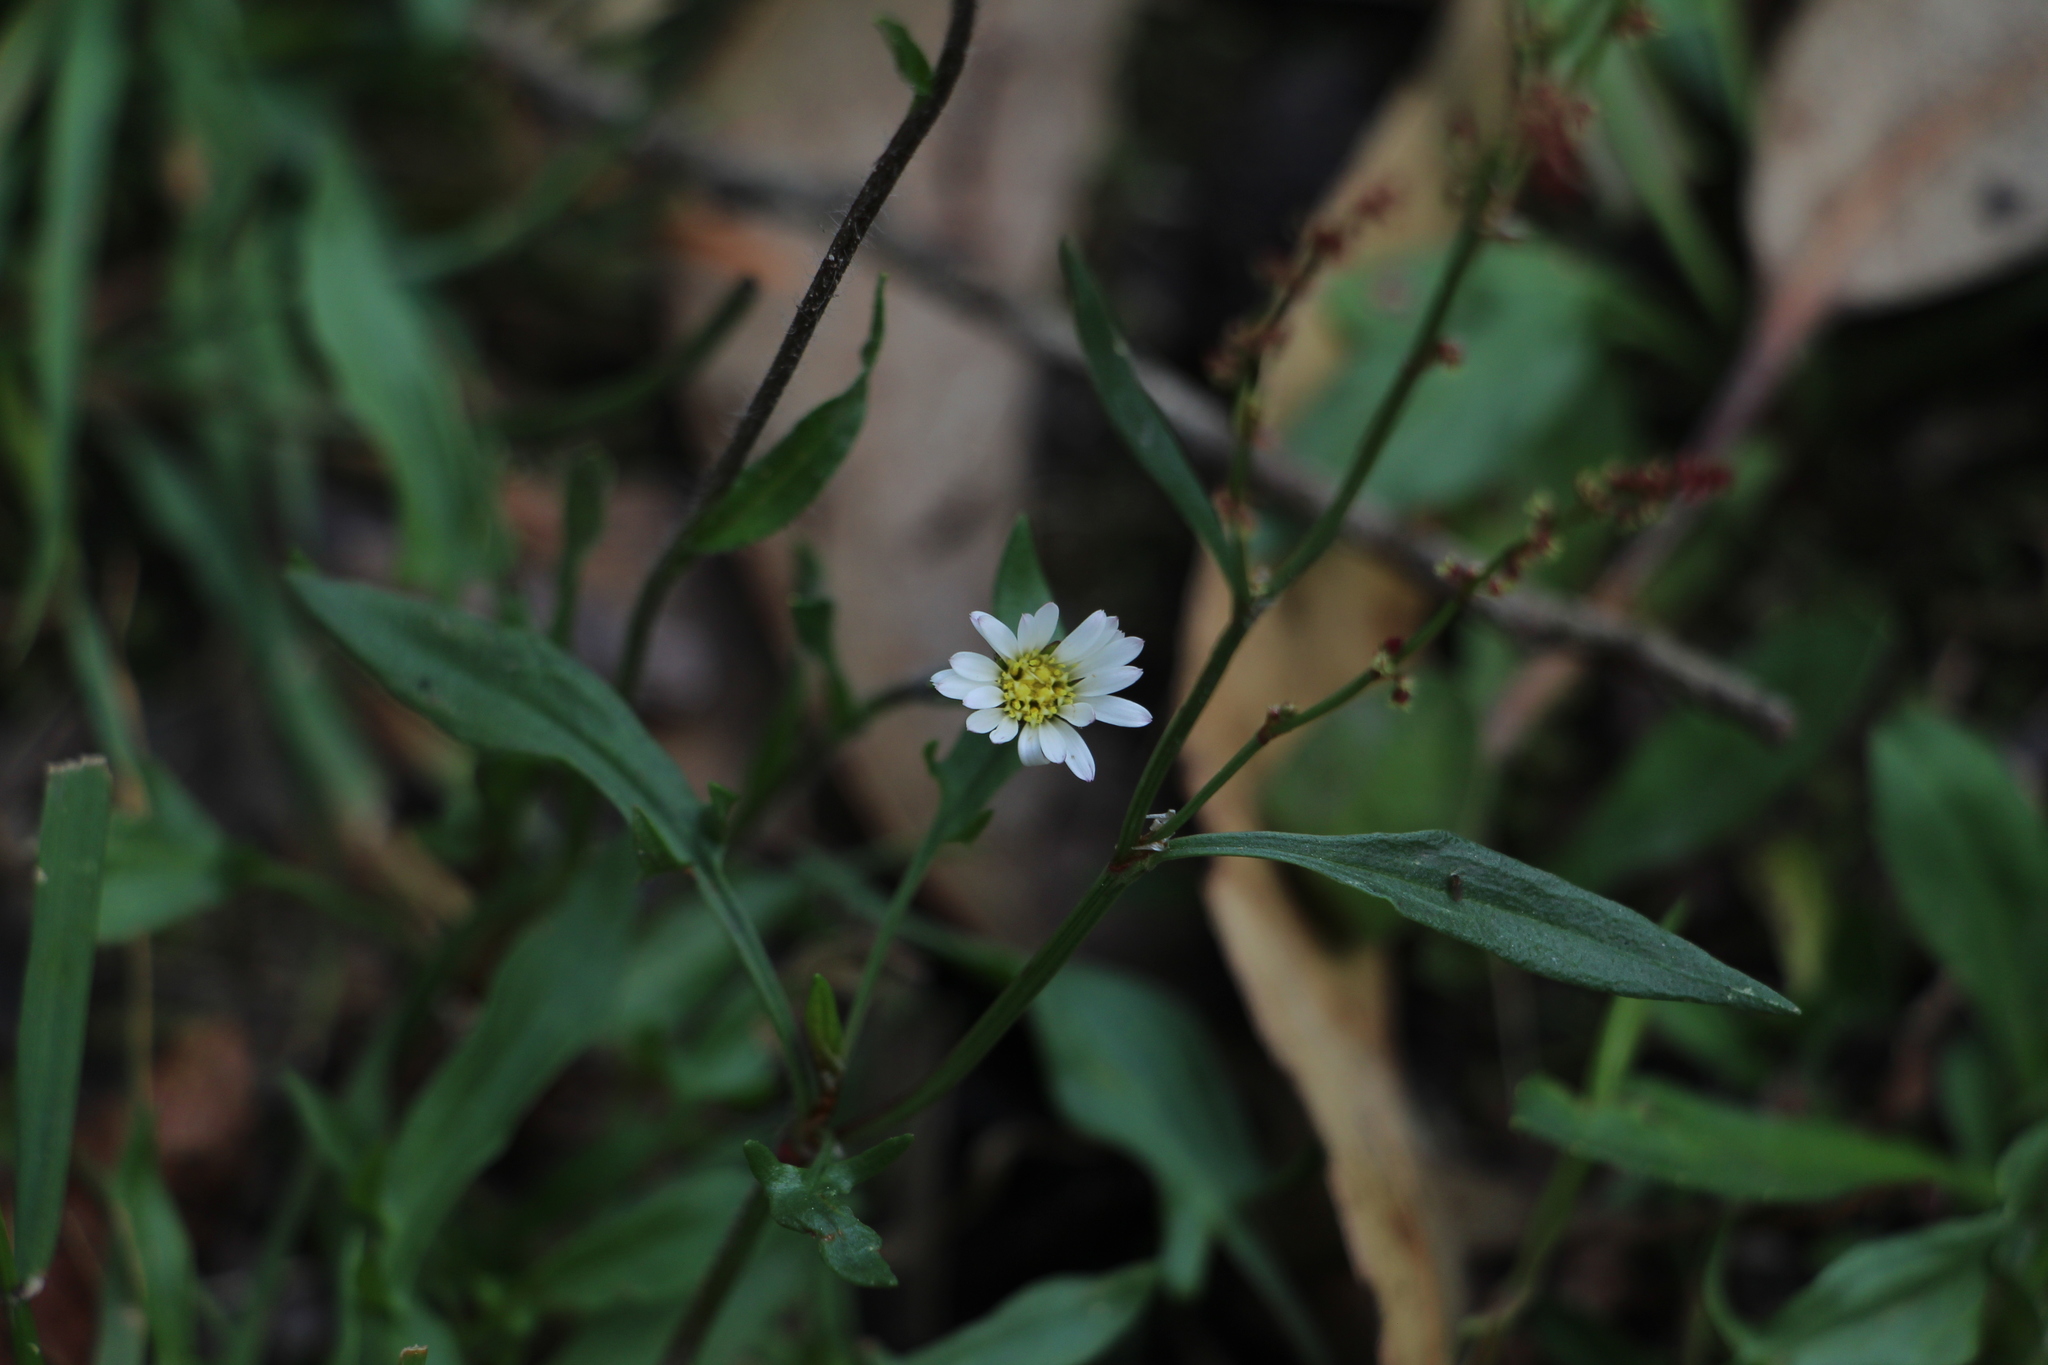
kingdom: Plantae
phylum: Tracheophyta
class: Magnoliopsida
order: Asterales
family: Asteraceae
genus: Noticastrum
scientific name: Noticastrum marginatum
